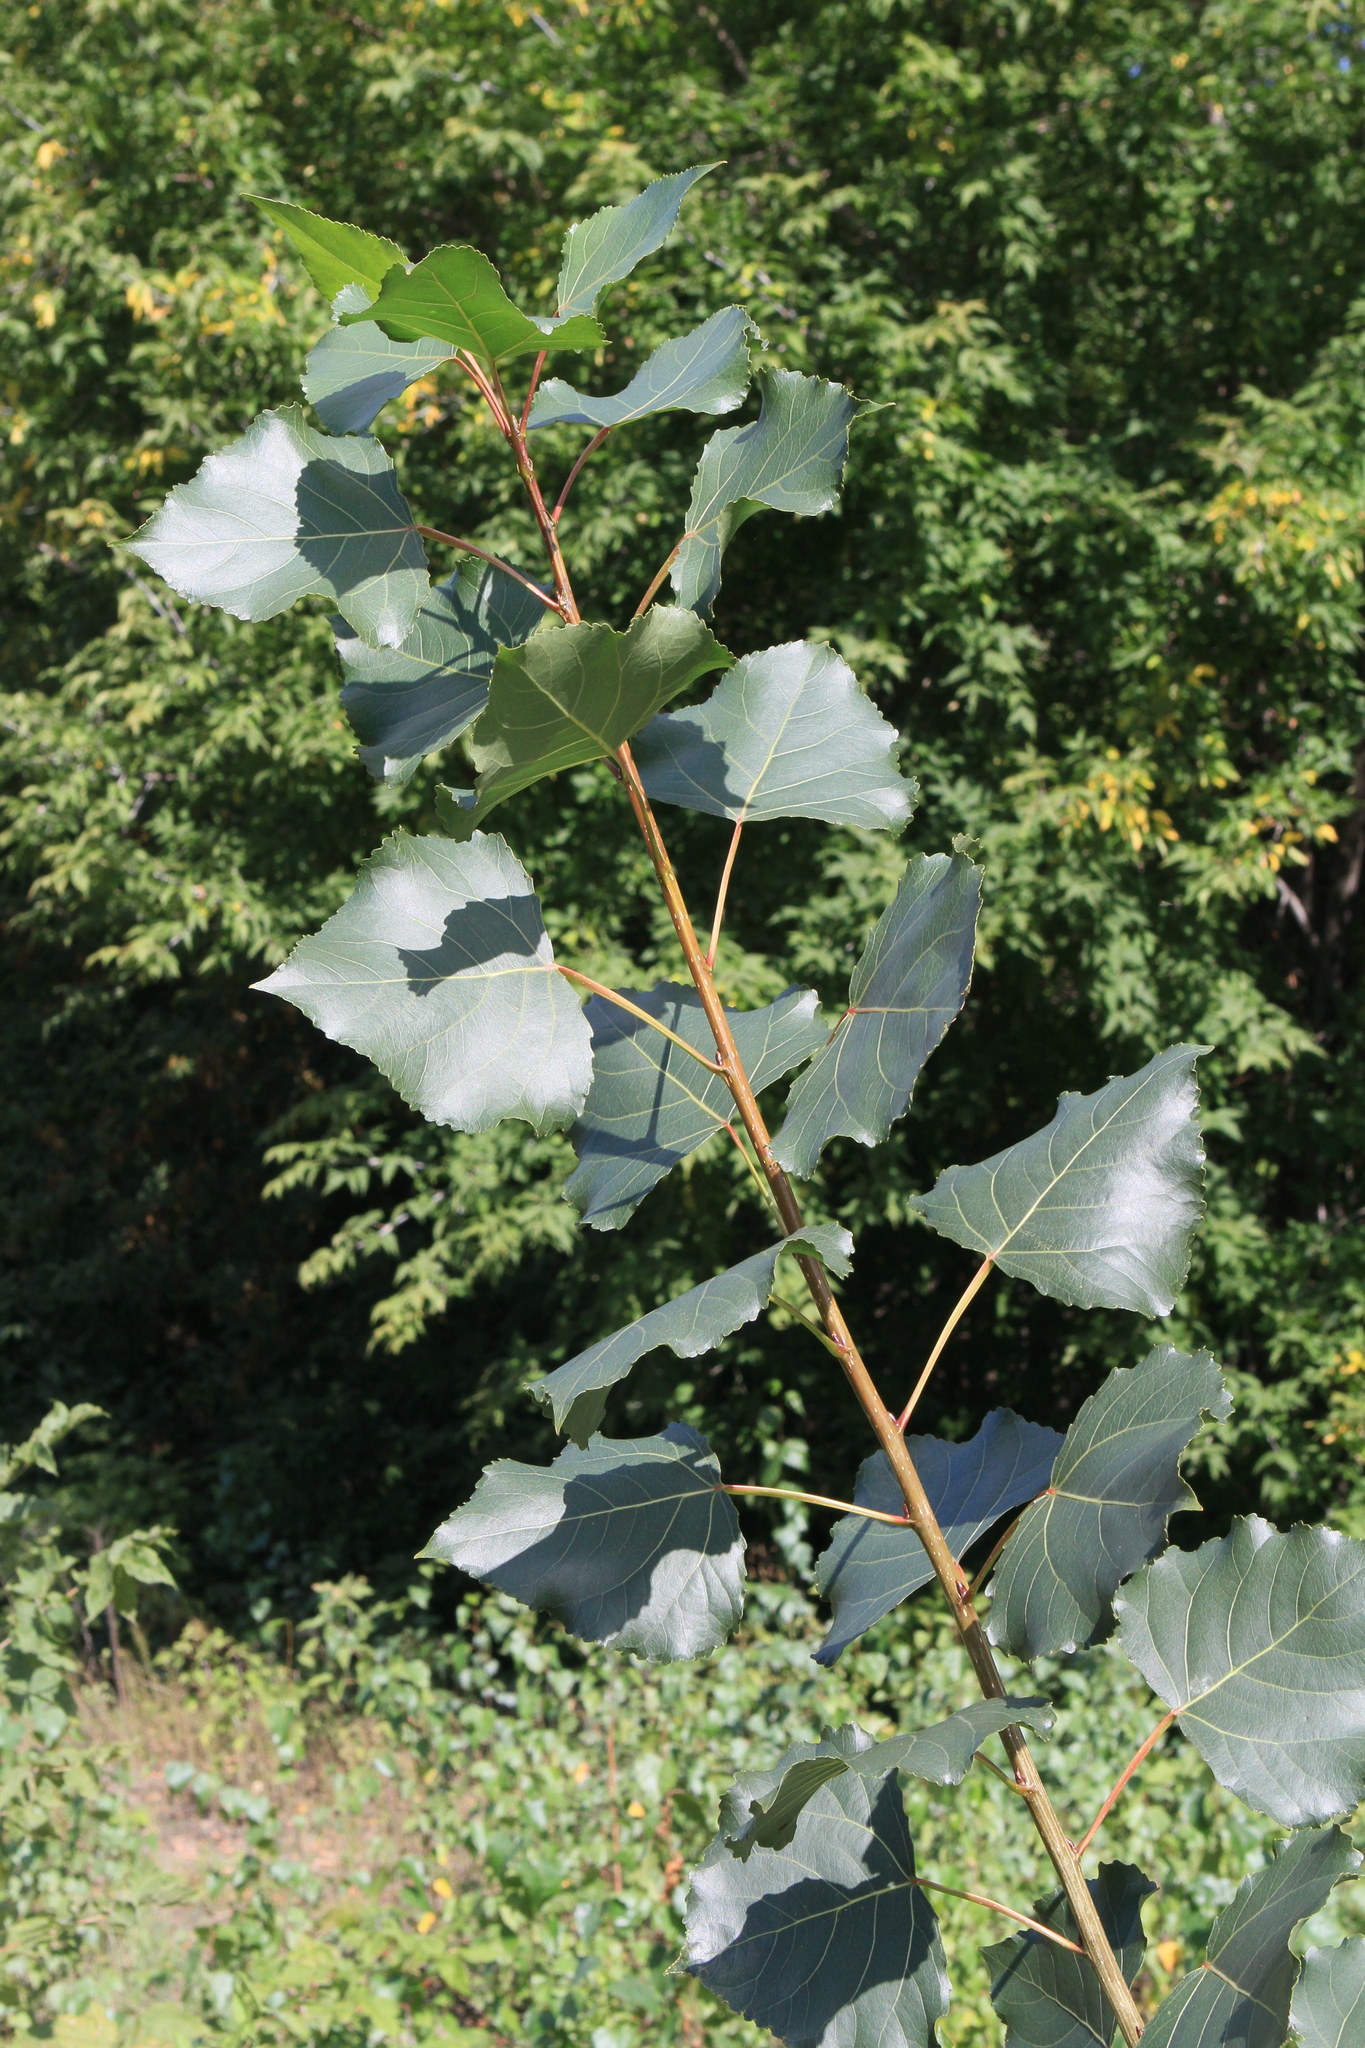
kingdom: Plantae
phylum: Tracheophyta
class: Magnoliopsida
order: Malpighiales
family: Salicaceae
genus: Populus
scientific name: Populus nigra
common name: Black poplar
